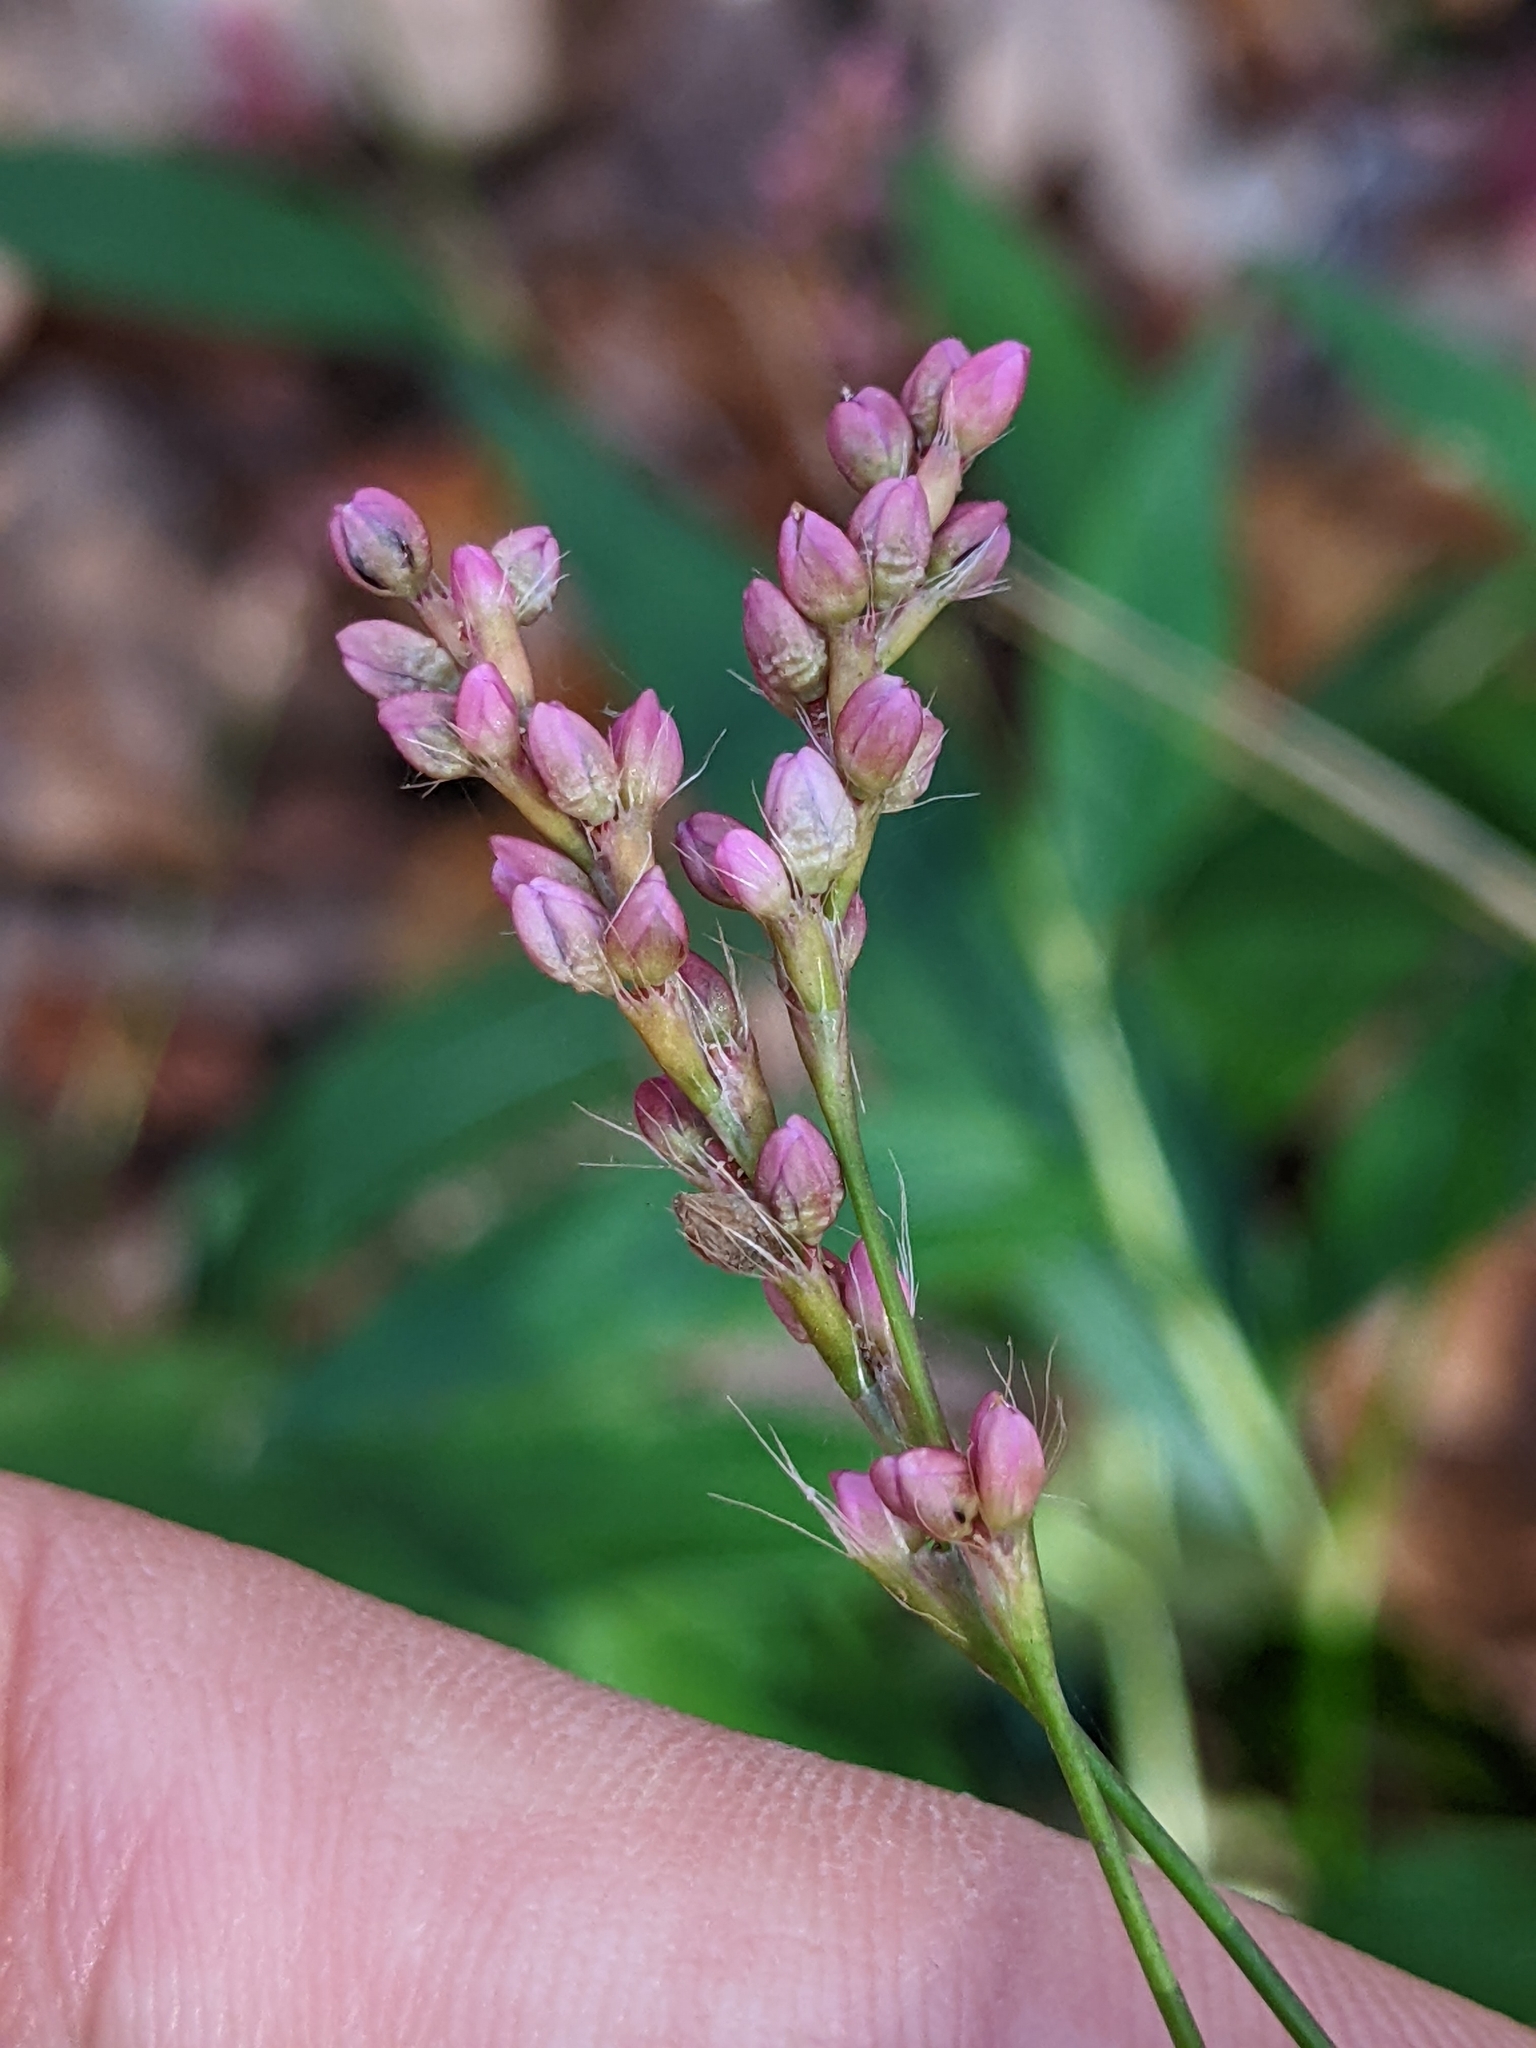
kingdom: Plantae
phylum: Tracheophyta
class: Magnoliopsida
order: Caryophyllales
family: Polygonaceae
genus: Persicaria
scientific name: Persicaria longiseta
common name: Bristly lady's-thumb
